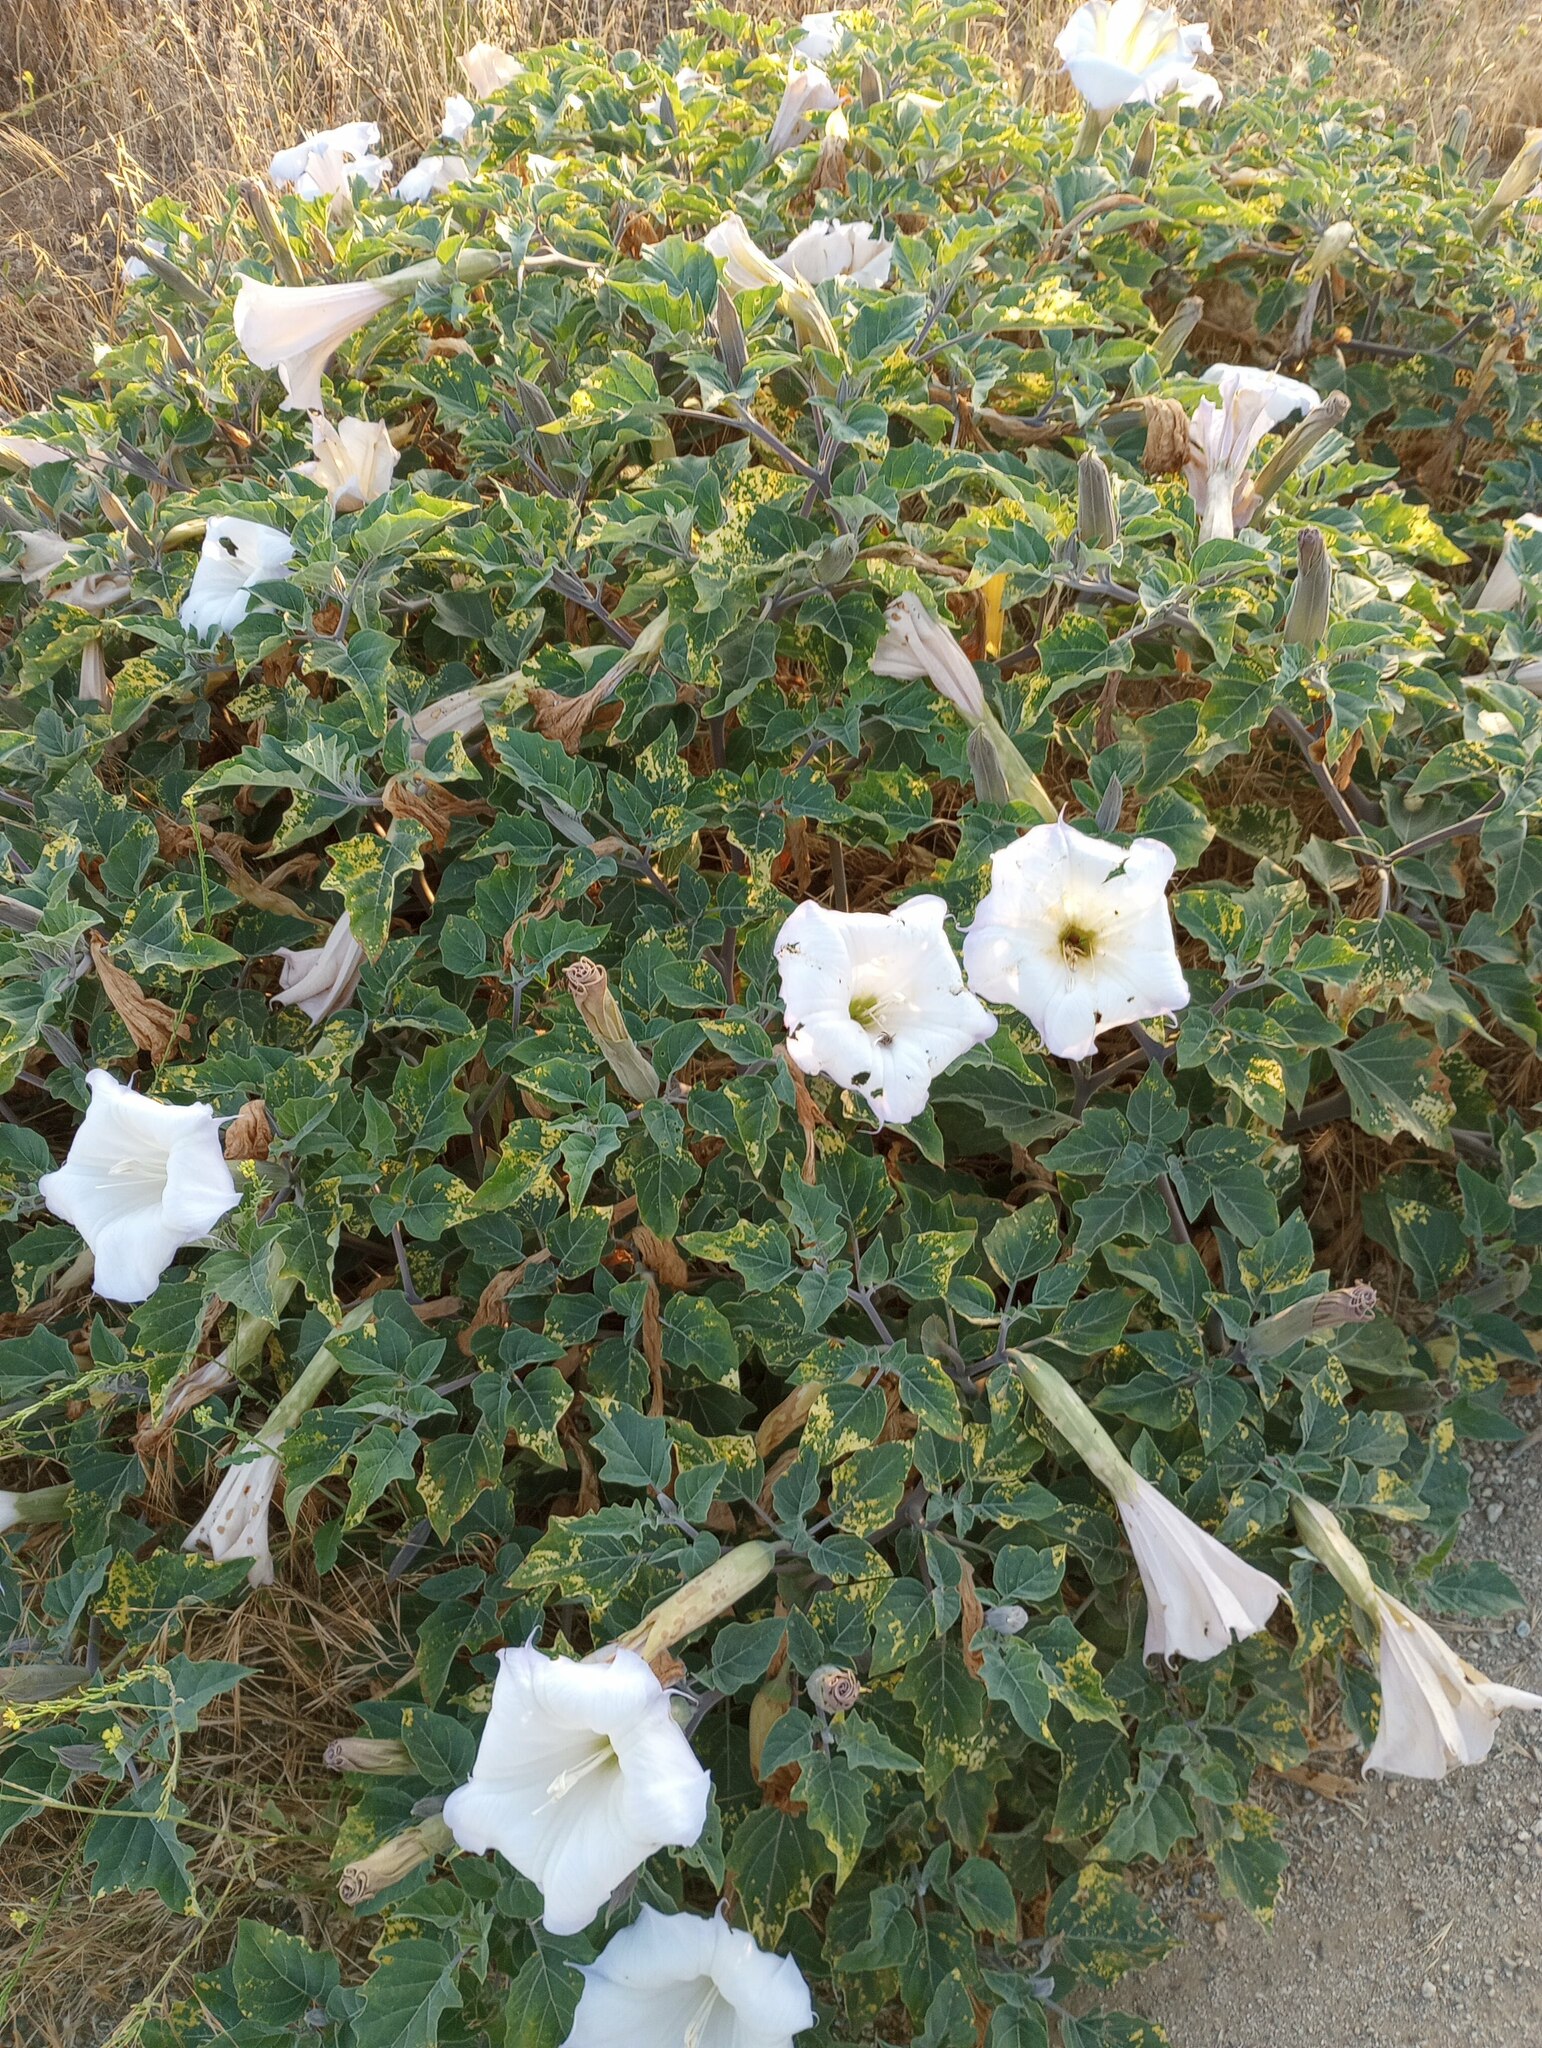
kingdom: Plantae
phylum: Tracheophyta
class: Magnoliopsida
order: Solanales
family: Solanaceae
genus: Datura
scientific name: Datura wrightii
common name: Sacred thorn-apple
